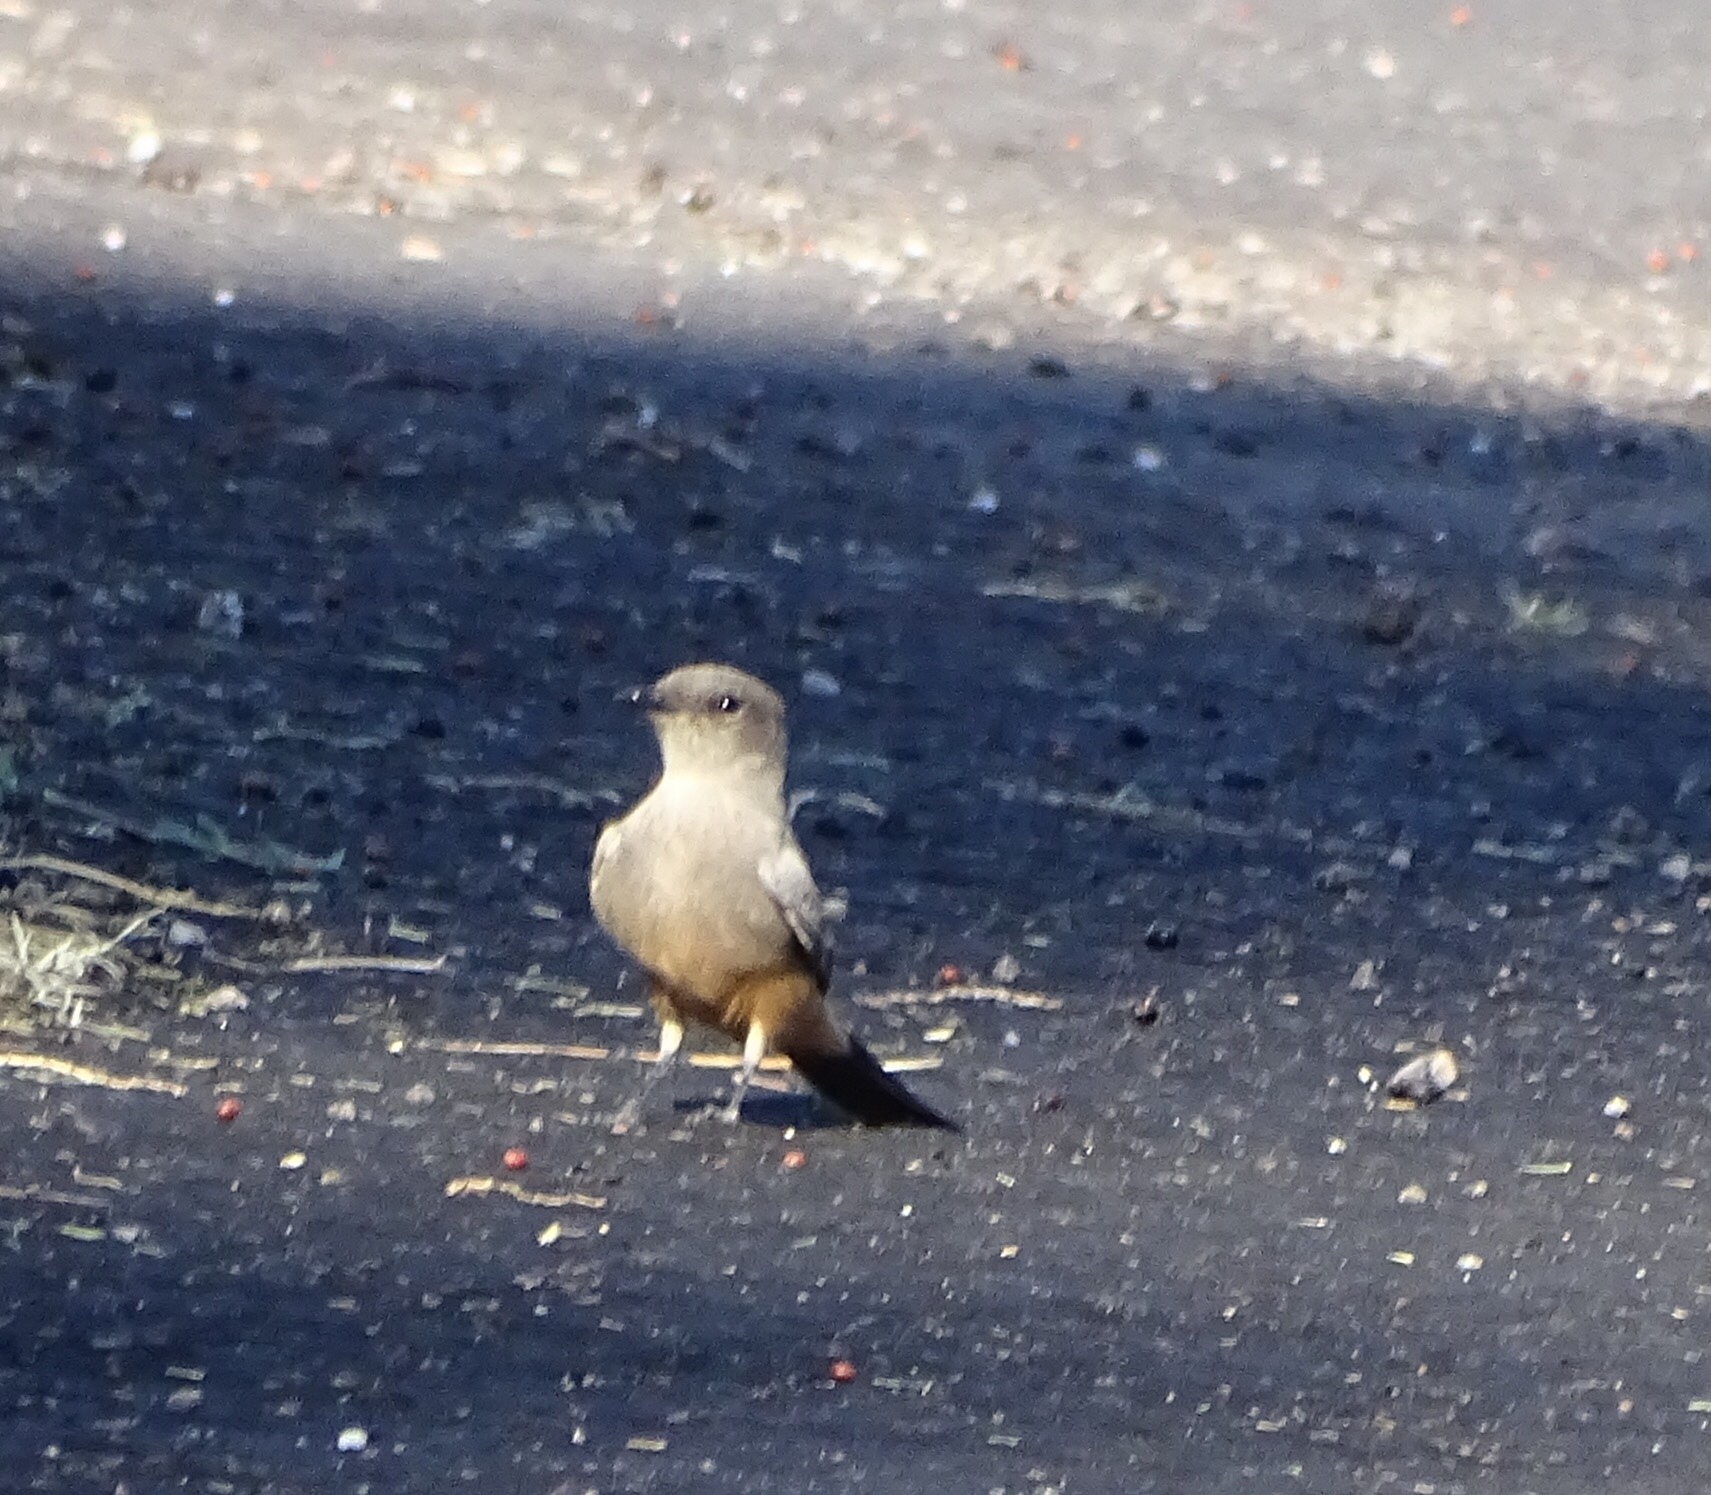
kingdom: Animalia
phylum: Chordata
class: Aves
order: Passeriformes
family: Tyrannidae
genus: Sayornis
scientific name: Sayornis saya
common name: Say's phoebe
